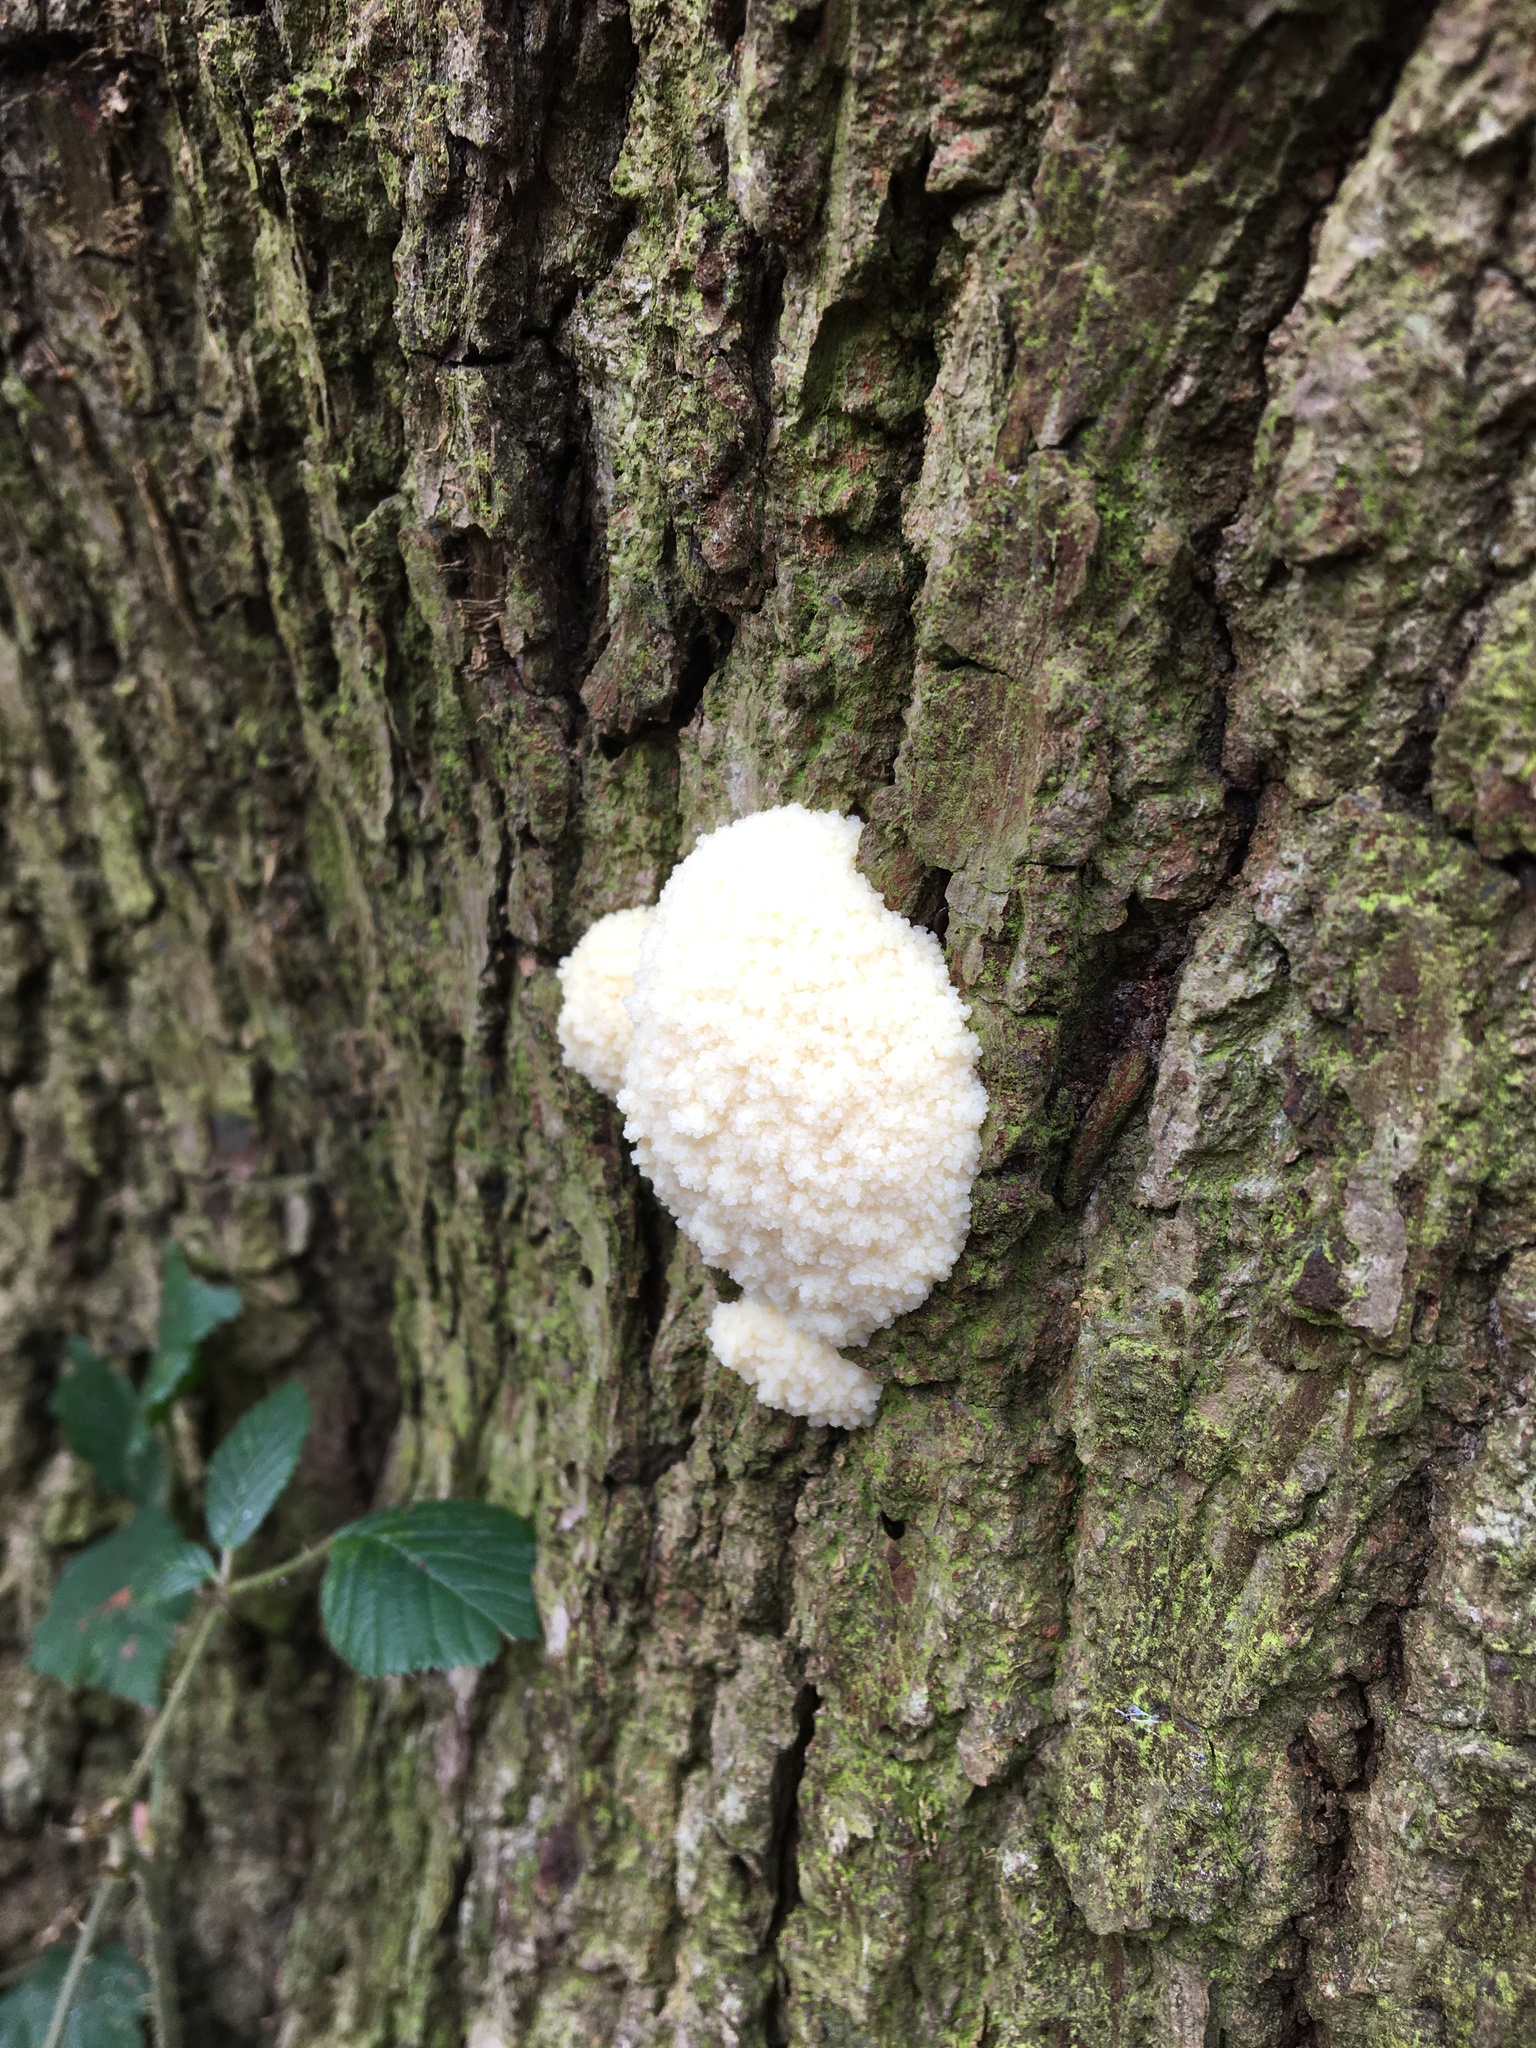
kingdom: Protozoa
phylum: Mycetozoa
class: Myxomycetes
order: Cribrariales
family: Tubiferaceae
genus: Reticularia
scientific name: Reticularia lycoperdon
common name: False puffball
